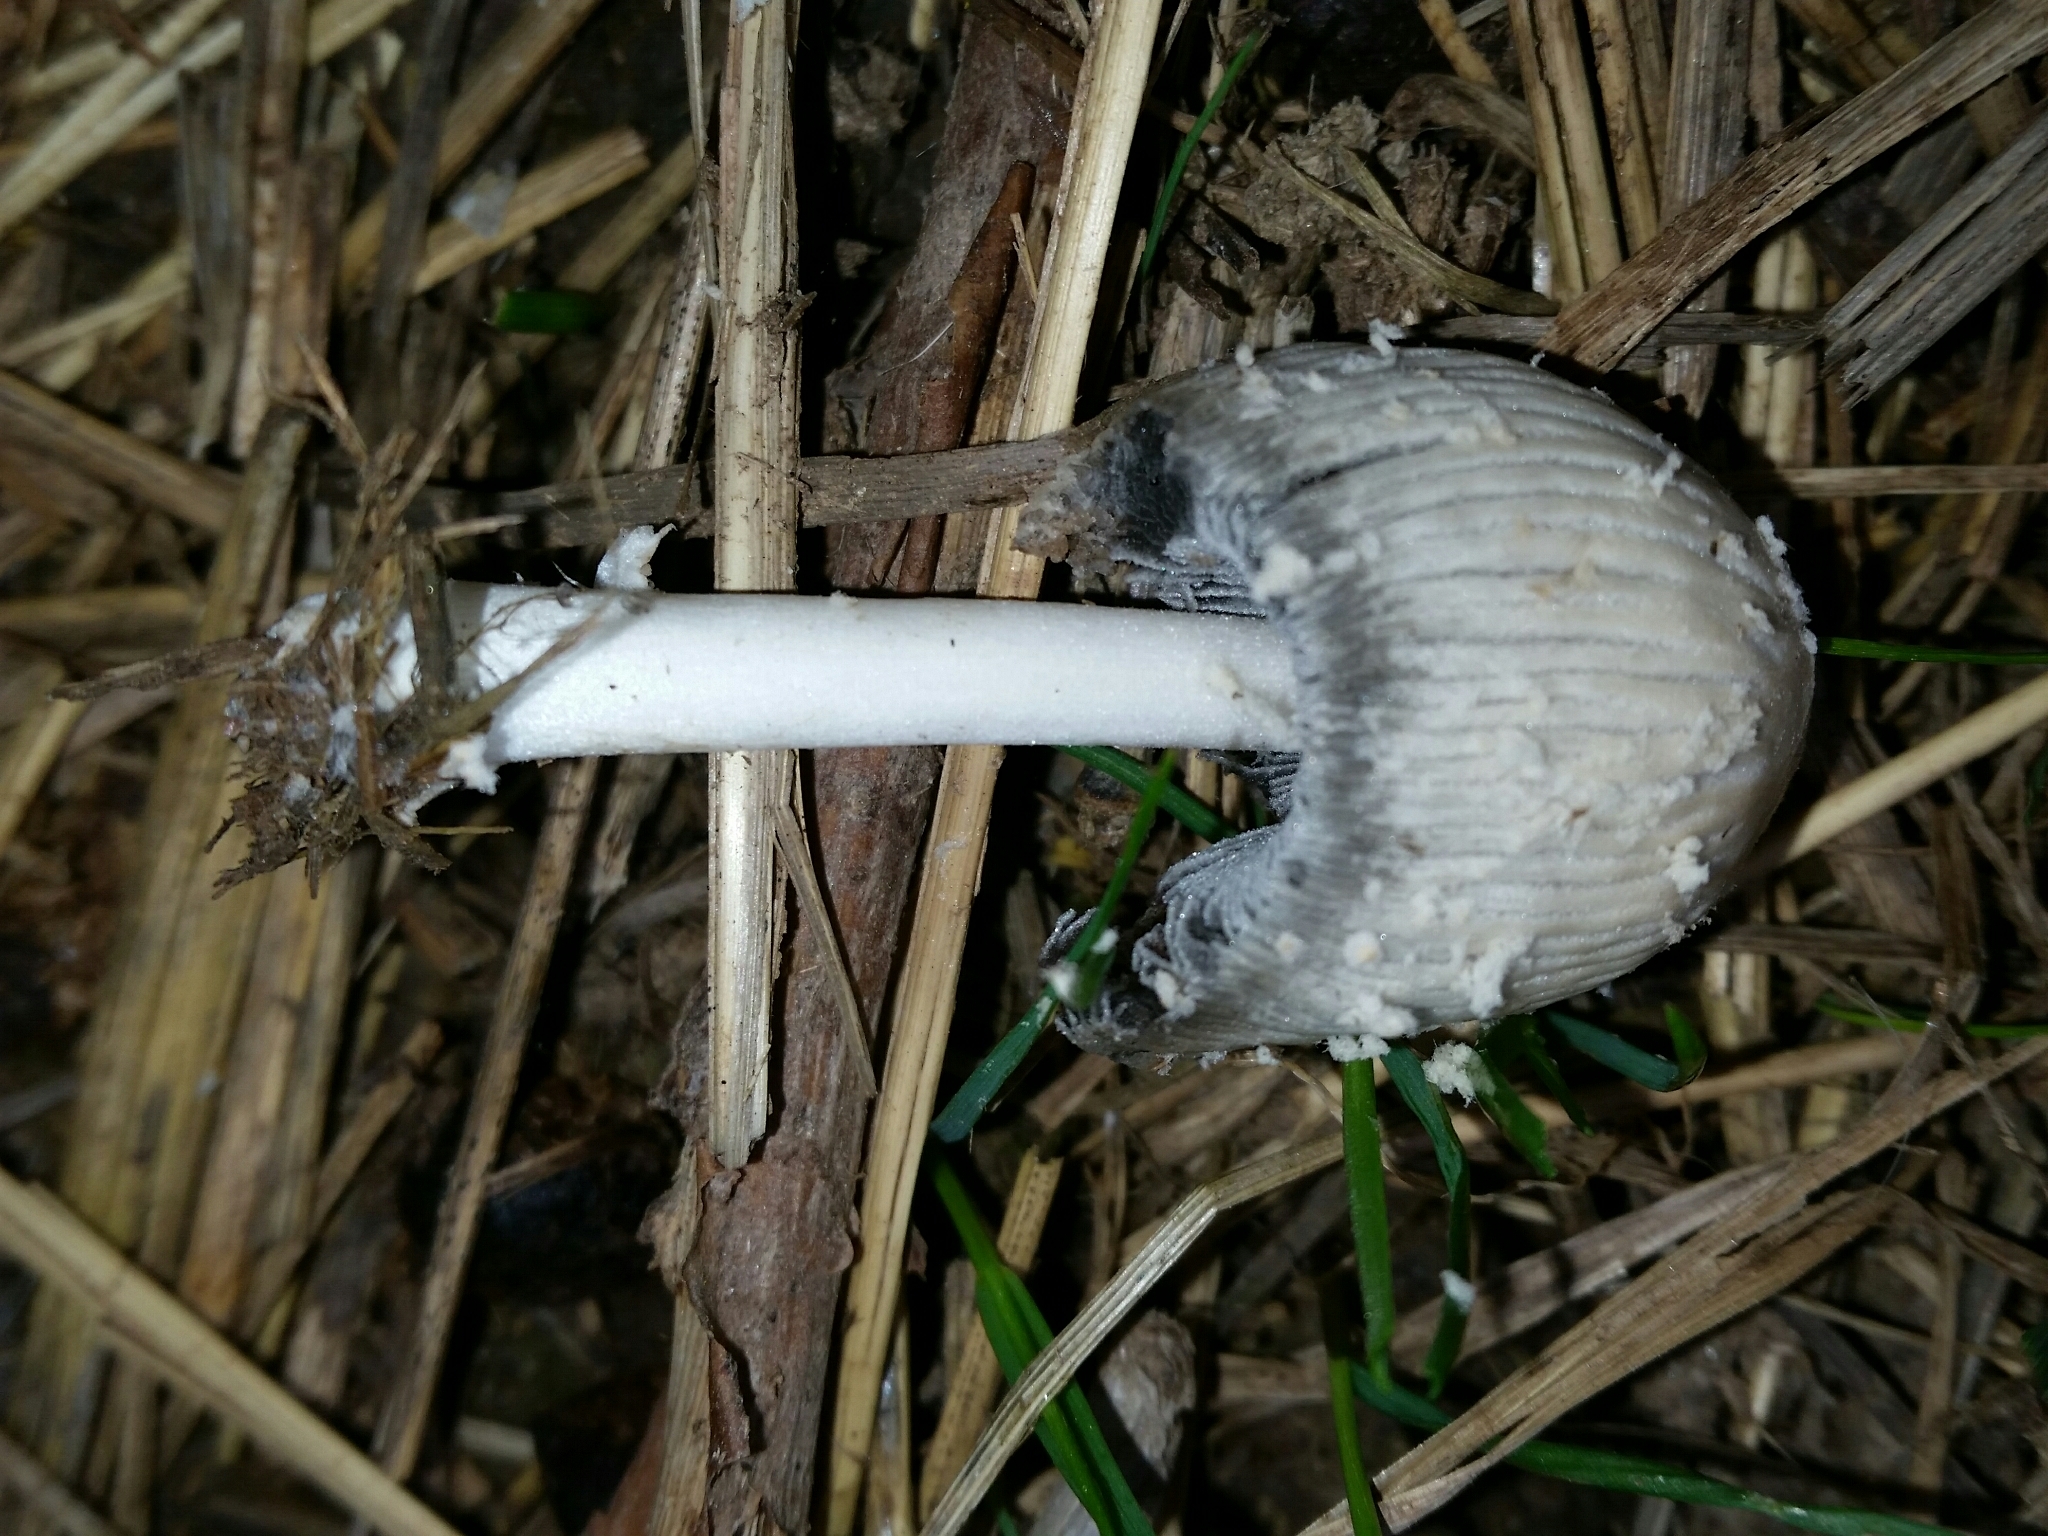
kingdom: Fungi
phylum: Basidiomycota
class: Agaricomycetes
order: Agaricales
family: Psathyrellaceae
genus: Coprinopsis
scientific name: Coprinopsis nivea
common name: Snowy inkcap
